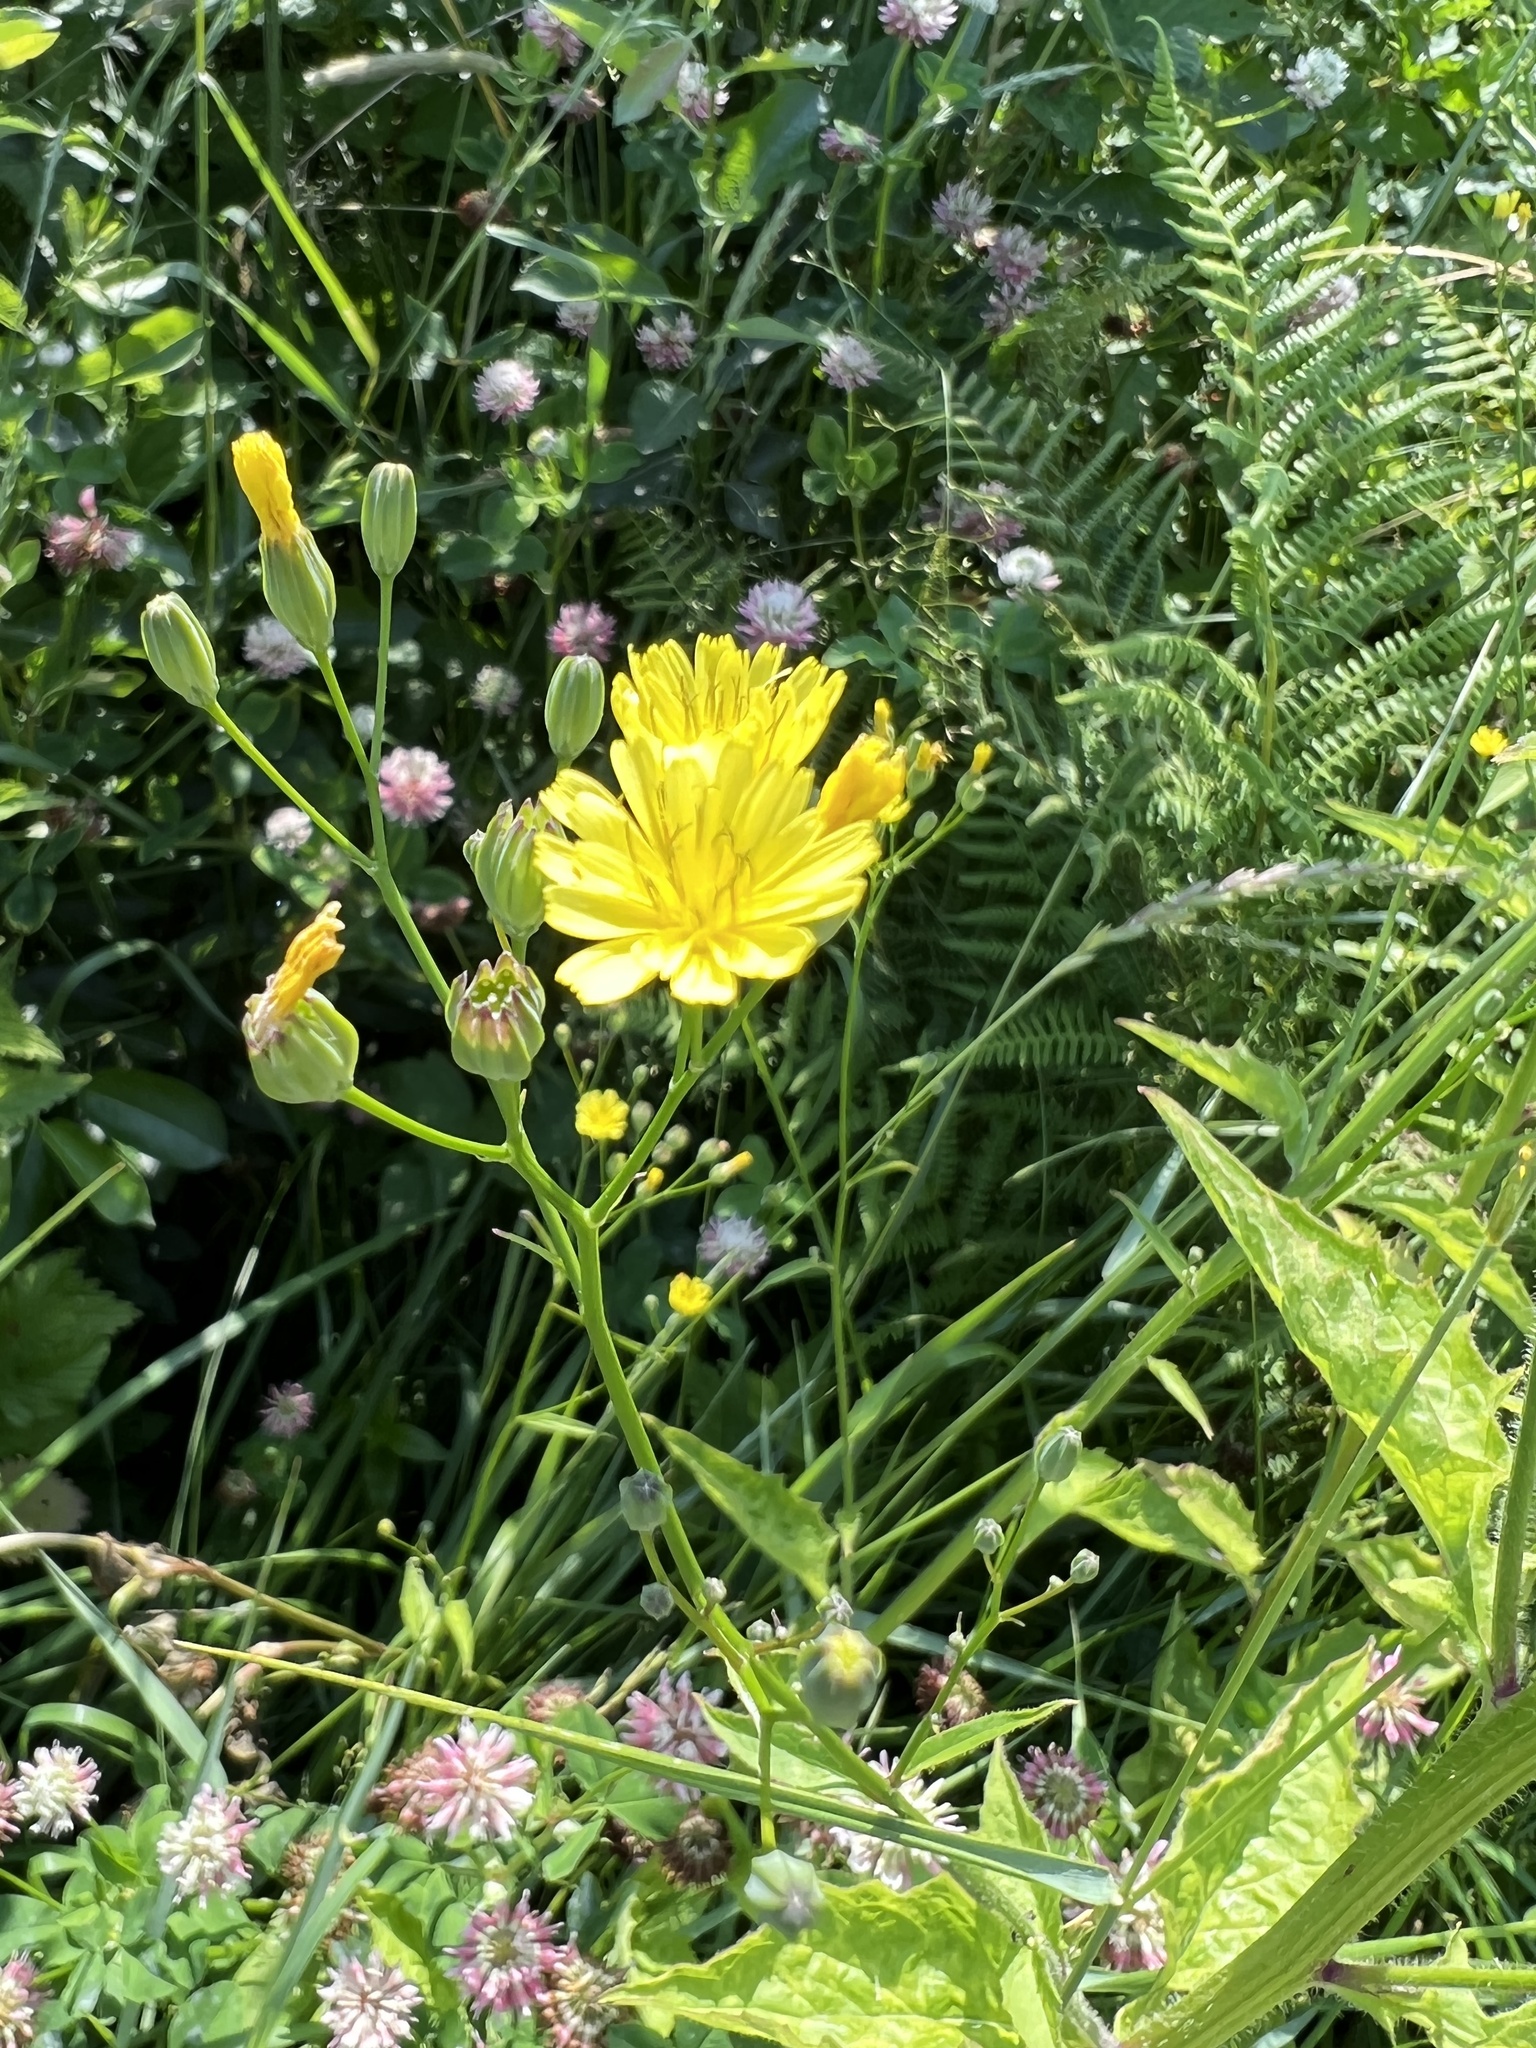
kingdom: Plantae
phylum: Tracheophyta
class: Magnoliopsida
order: Asterales
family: Asteraceae
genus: Lapsana
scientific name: Lapsana communis
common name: Nipplewort
